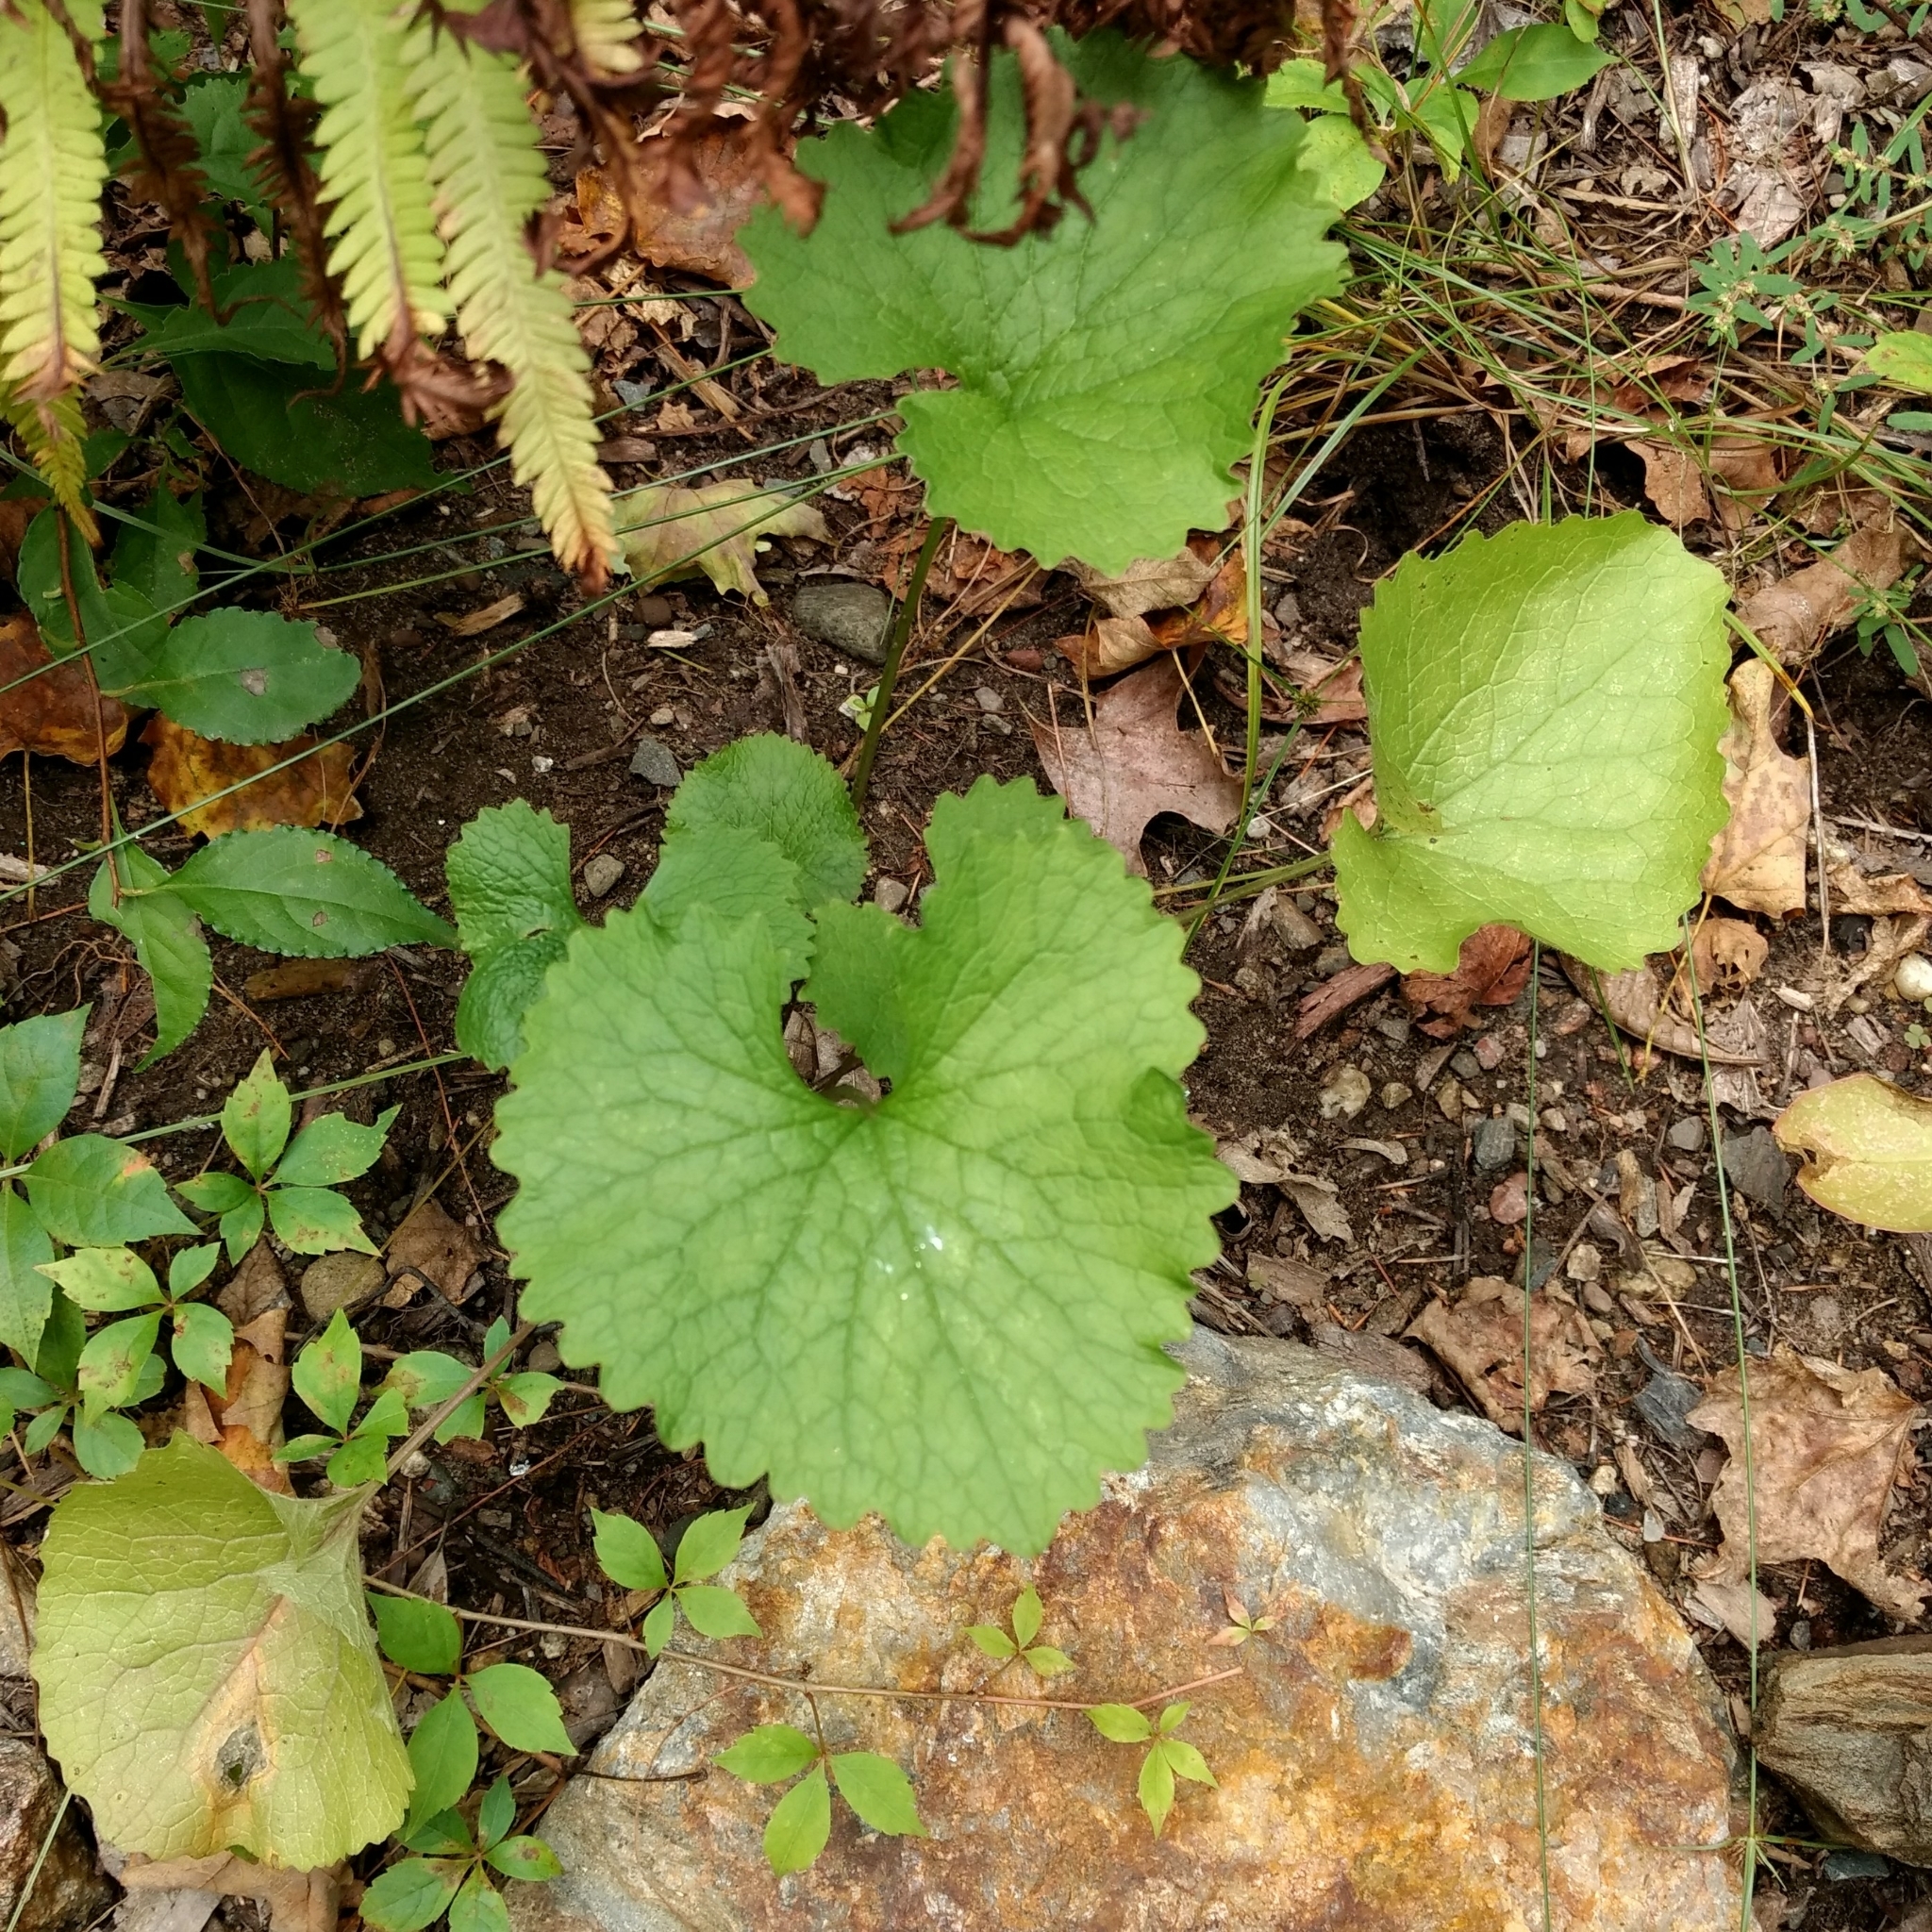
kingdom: Plantae
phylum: Tracheophyta
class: Magnoliopsida
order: Brassicales
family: Brassicaceae
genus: Alliaria
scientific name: Alliaria petiolata
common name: Garlic mustard
